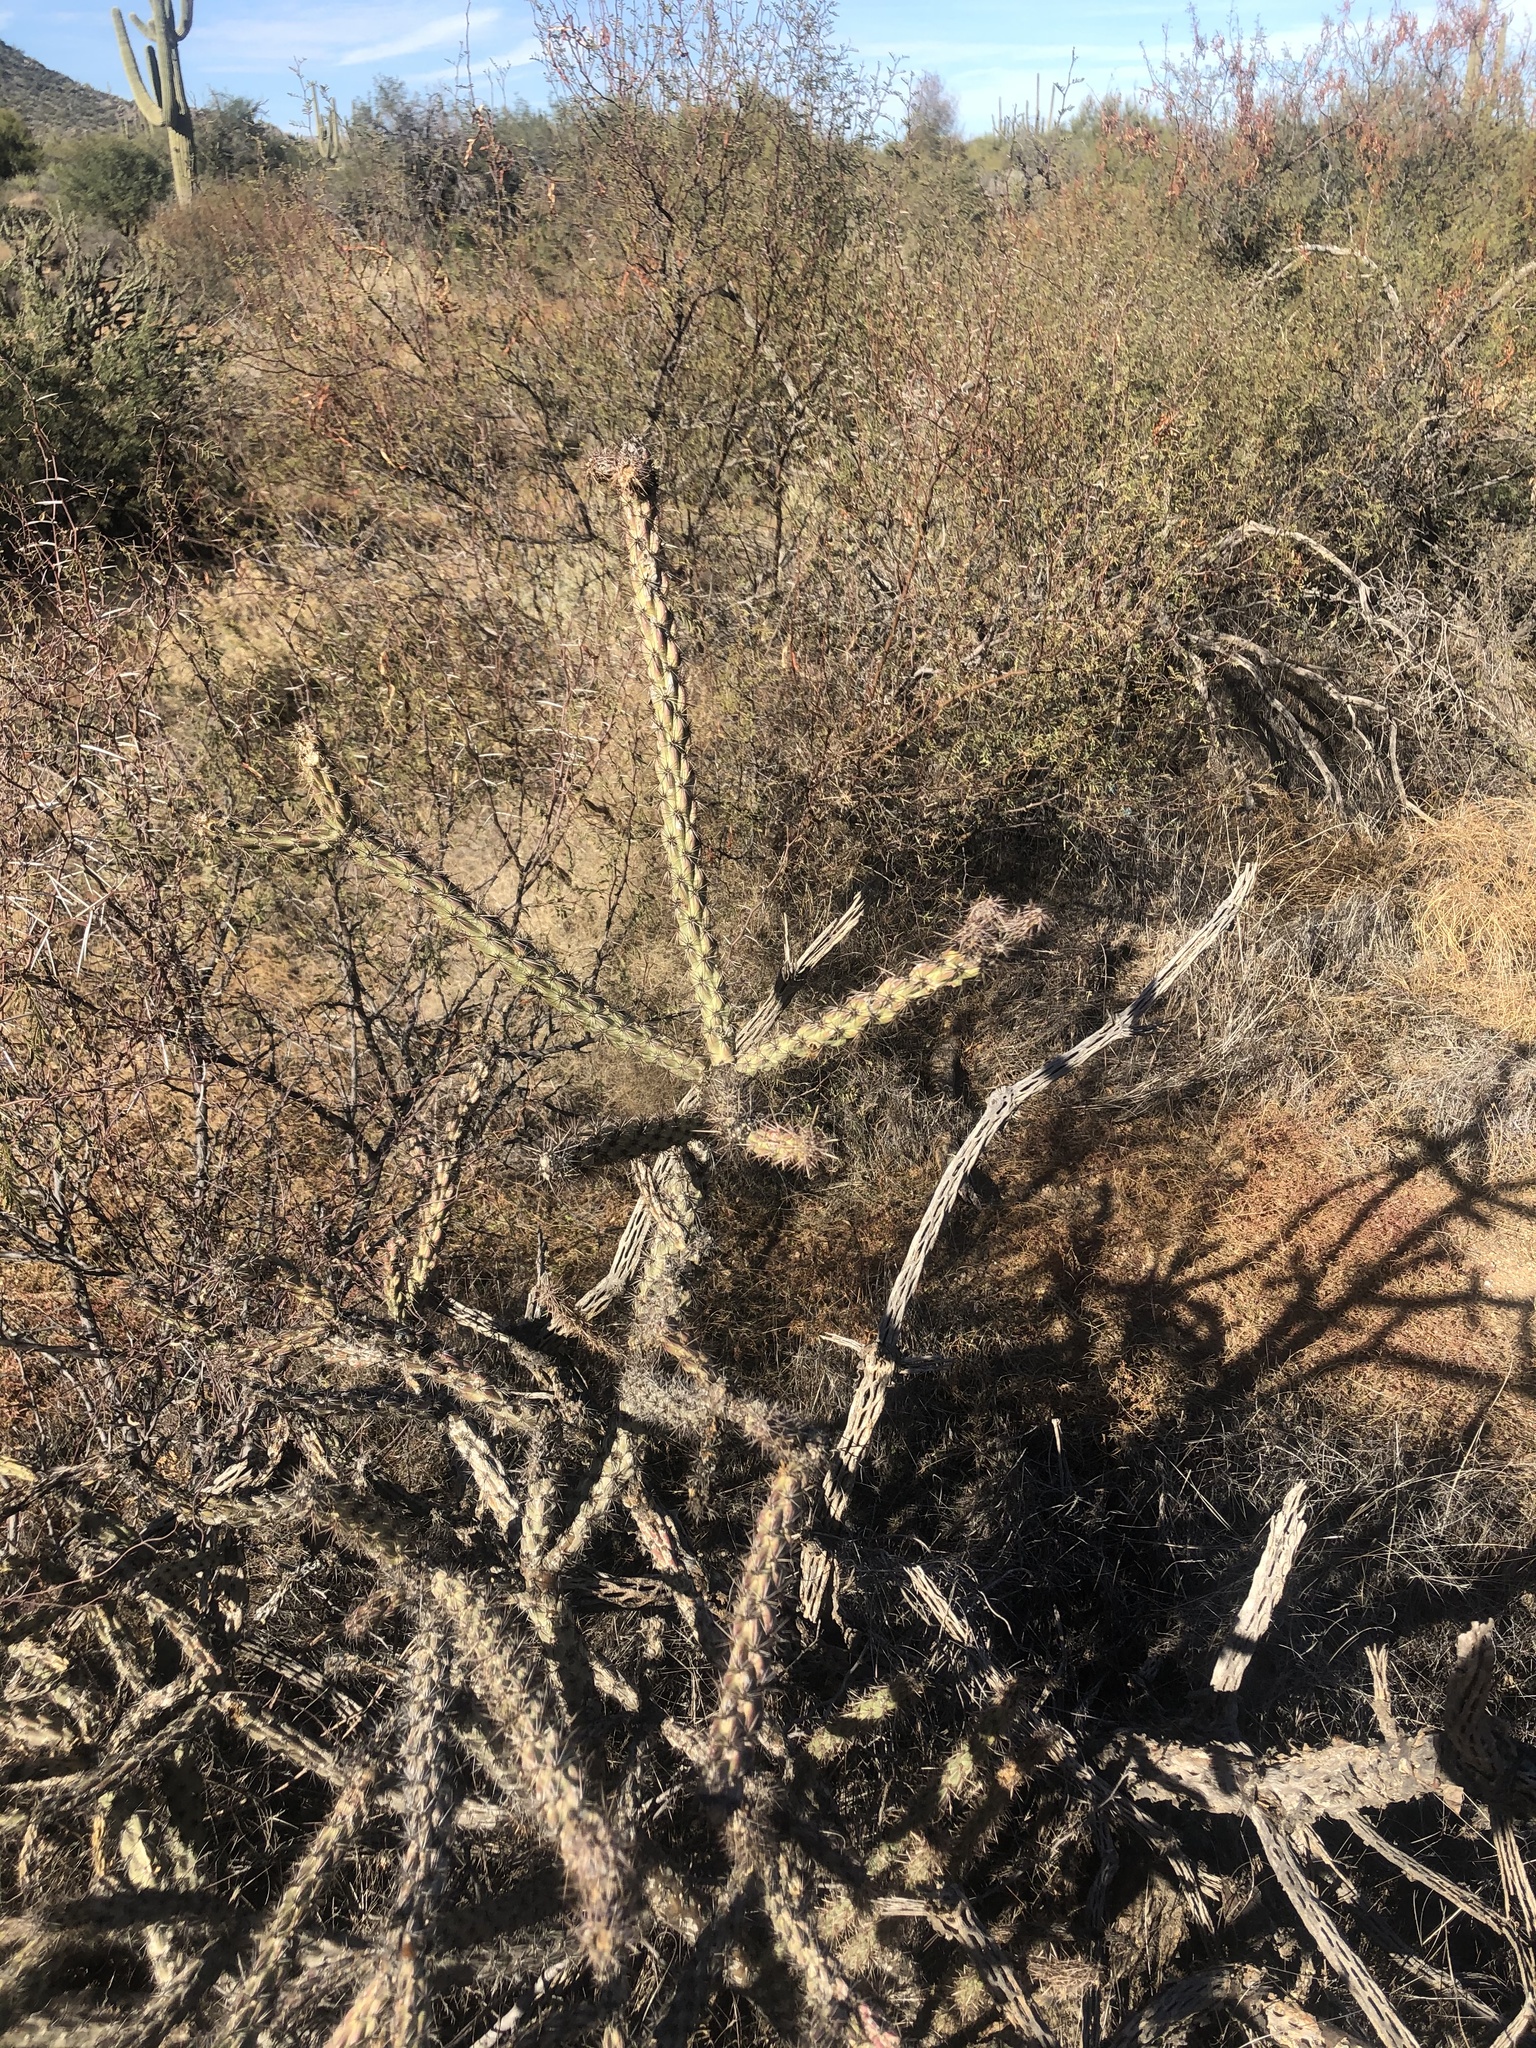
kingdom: Plantae
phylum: Tracheophyta
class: Magnoliopsida
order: Caryophyllales
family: Cactaceae
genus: Cylindropuntia
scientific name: Cylindropuntia acanthocarpa
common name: Buckhorn cholla
